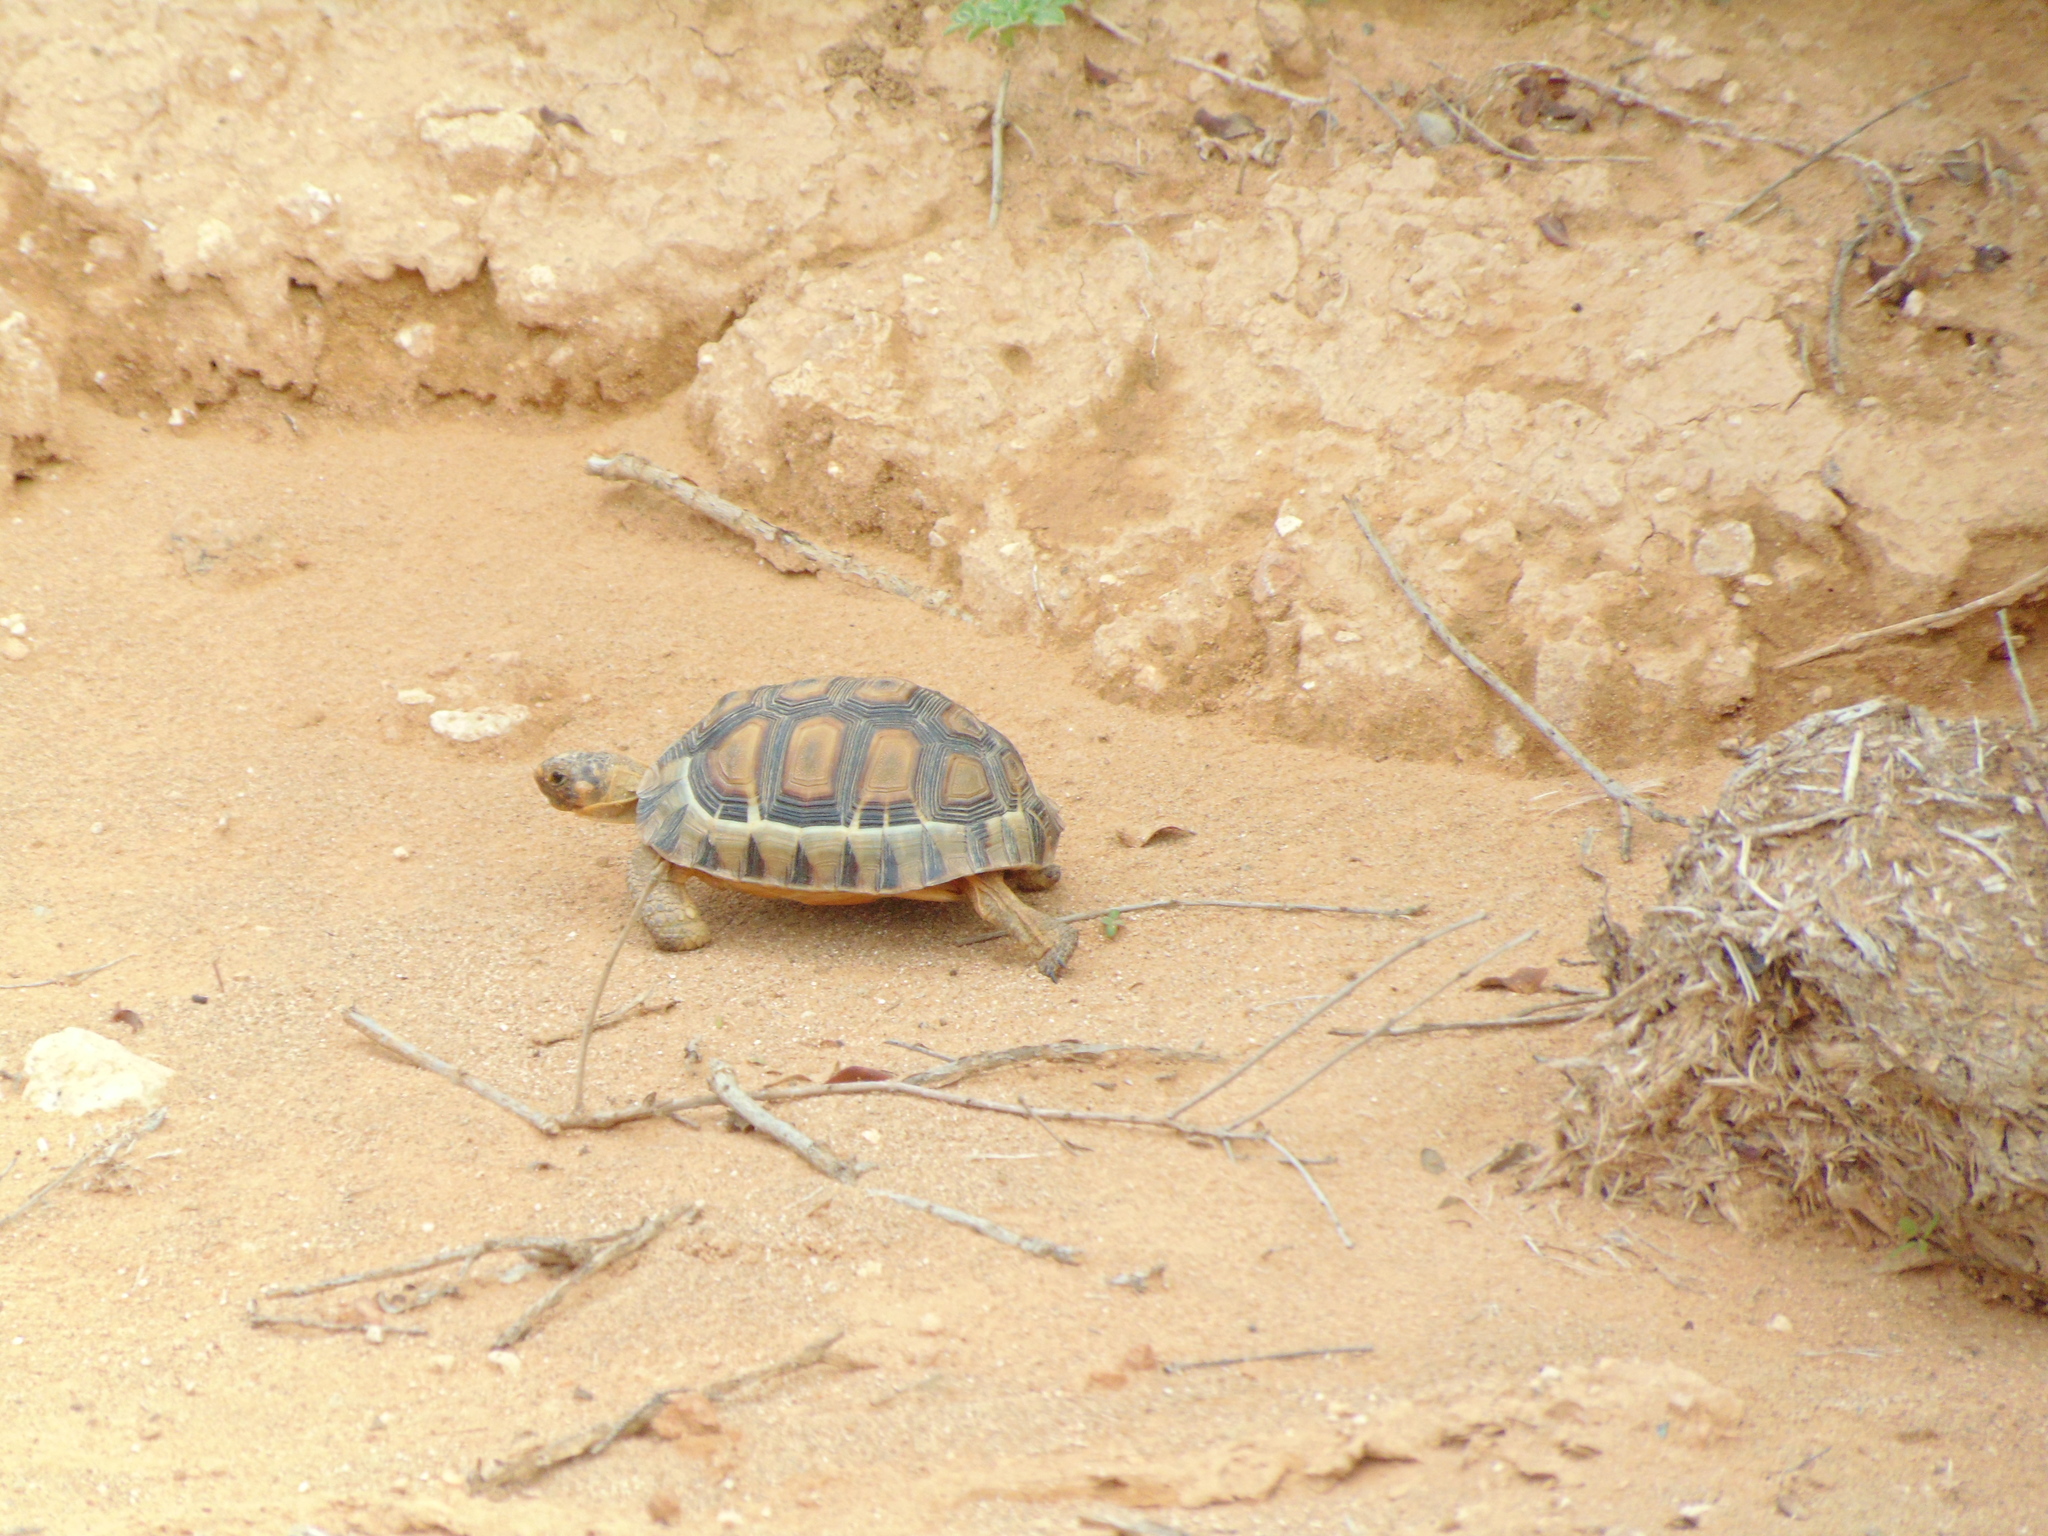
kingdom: Animalia
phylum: Chordata
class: Testudines
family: Testudinidae
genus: Chersina
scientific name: Chersina angulata
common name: South african bowsprit tortoise
